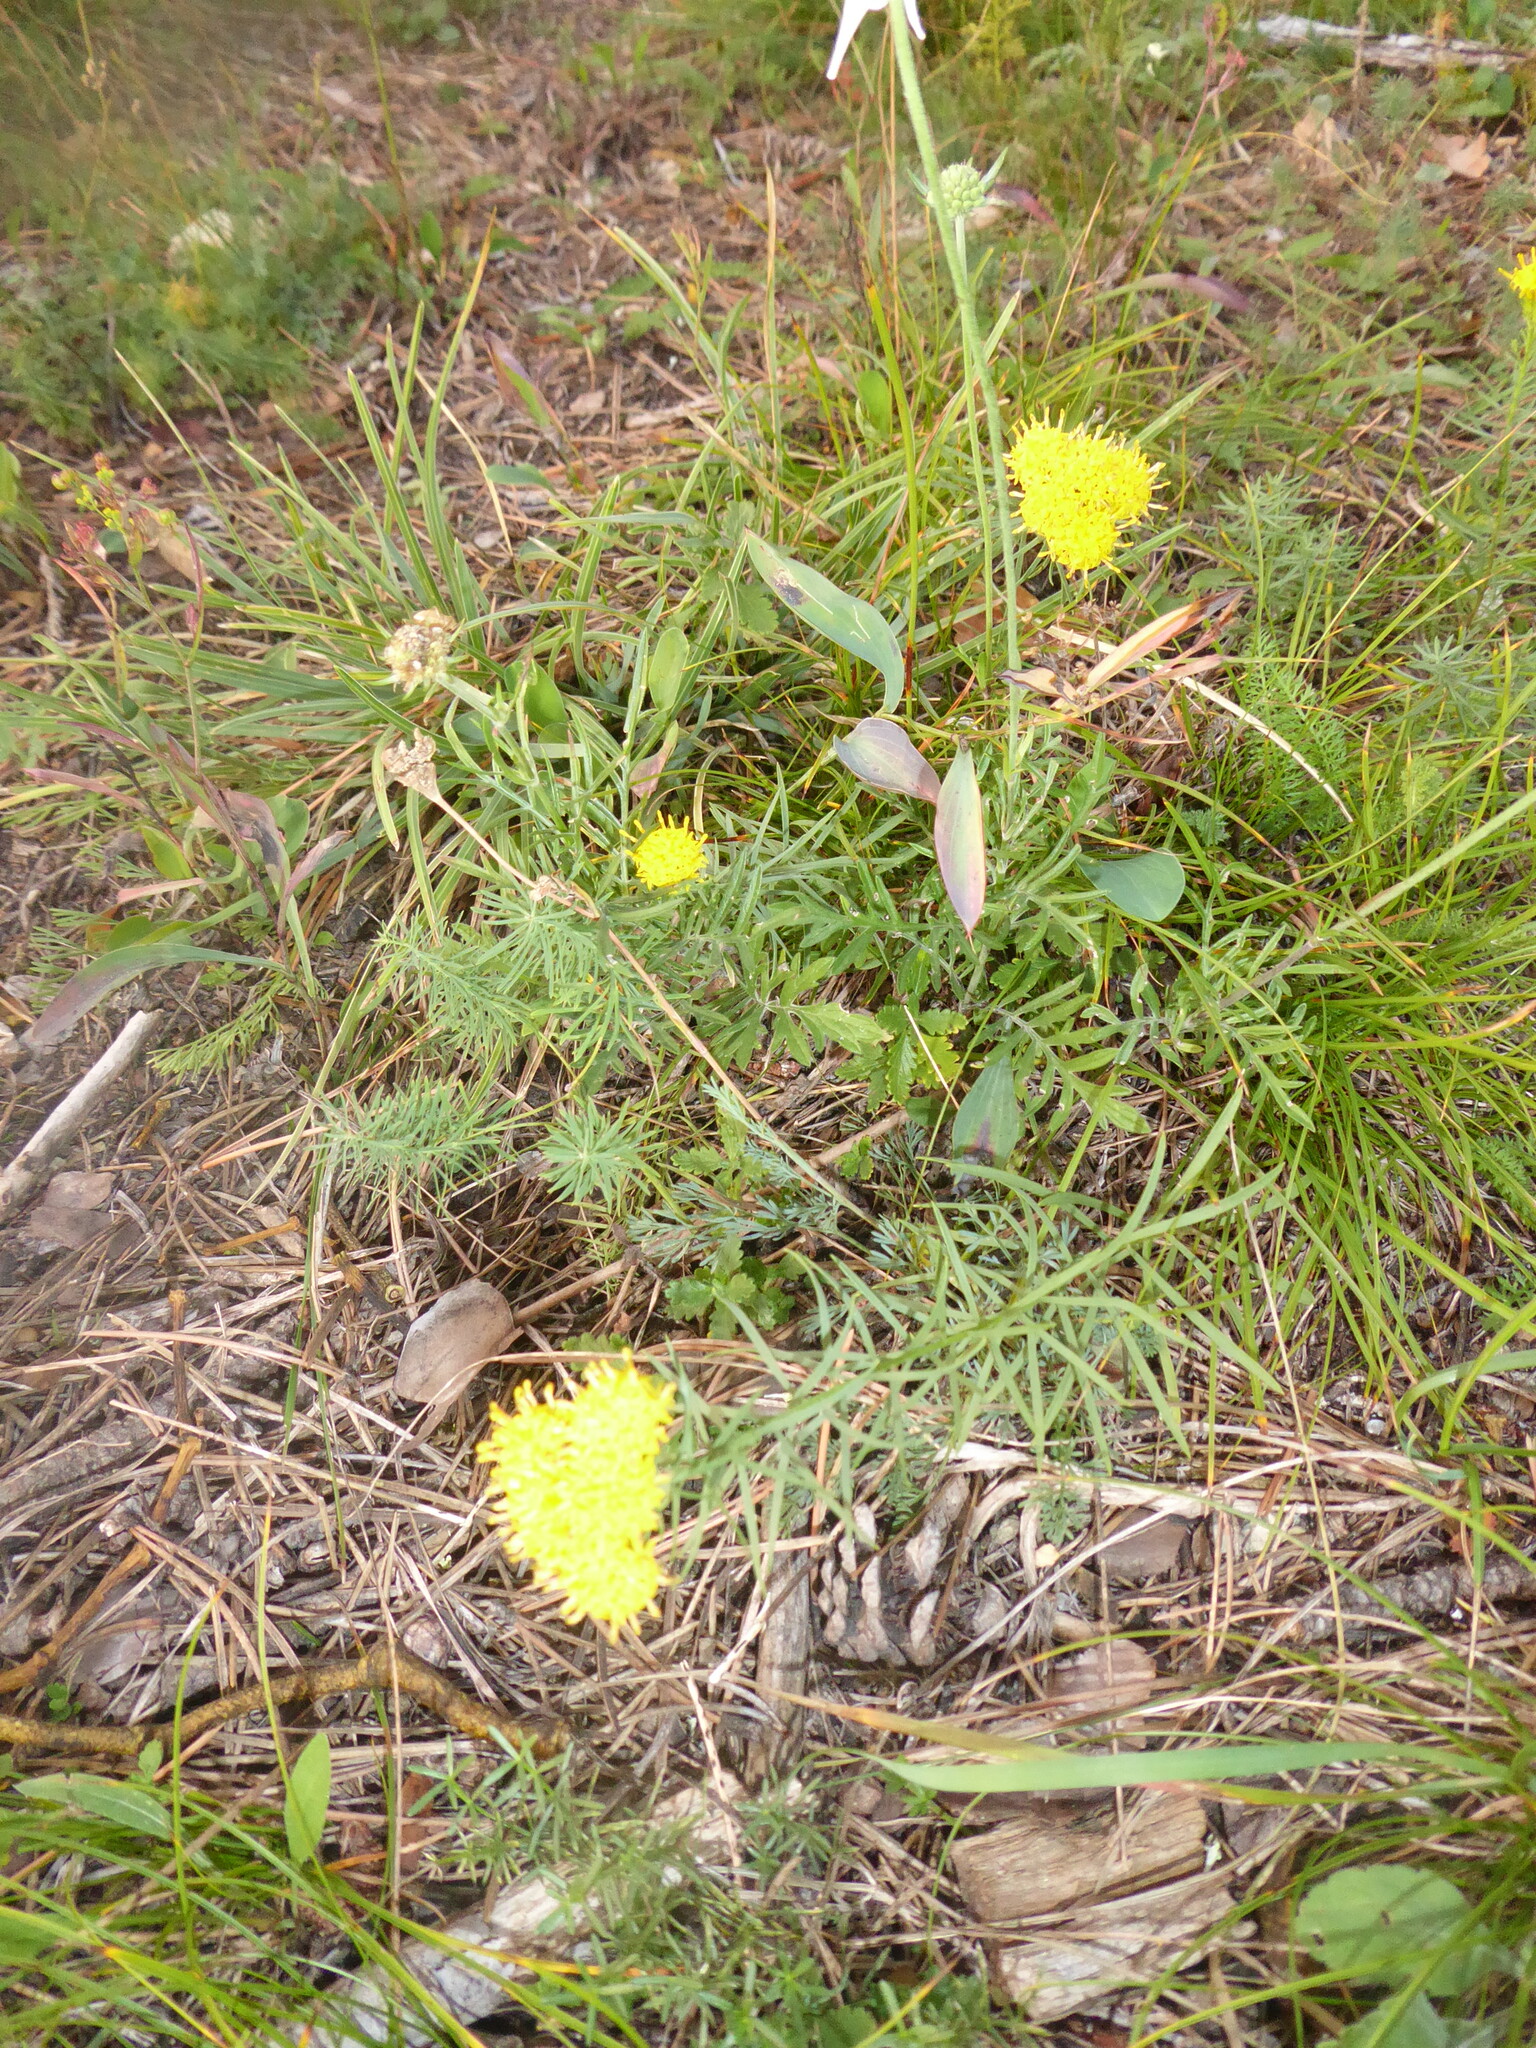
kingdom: Plantae
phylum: Tracheophyta
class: Magnoliopsida
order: Asterales
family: Asteraceae
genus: Galatella
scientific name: Galatella linosyris
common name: Goldilocks aster
